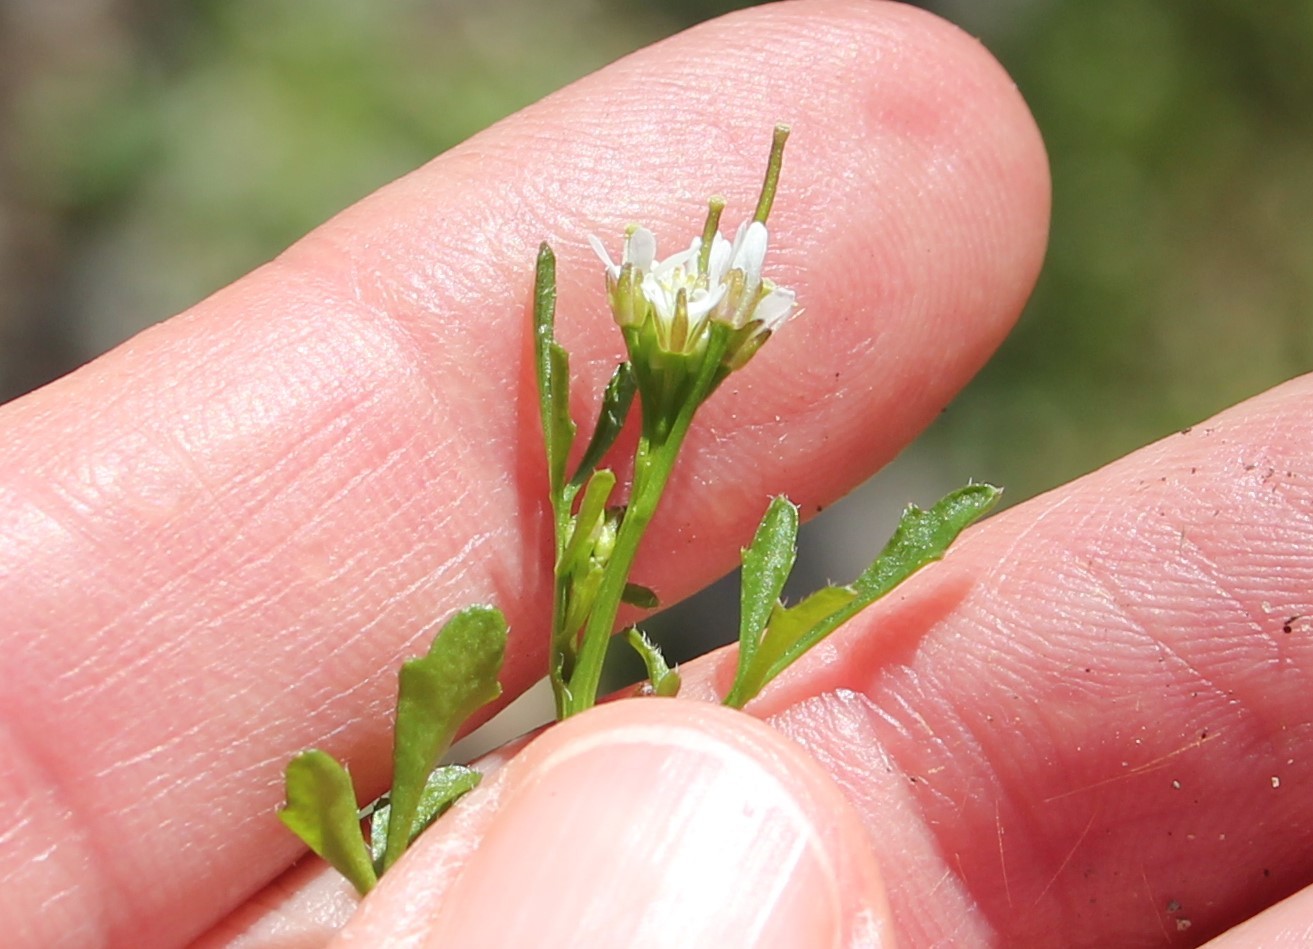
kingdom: Plantae
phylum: Tracheophyta
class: Magnoliopsida
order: Brassicales
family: Brassicaceae
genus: Cardamine
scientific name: Cardamine hirsuta
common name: Hairy bittercress
